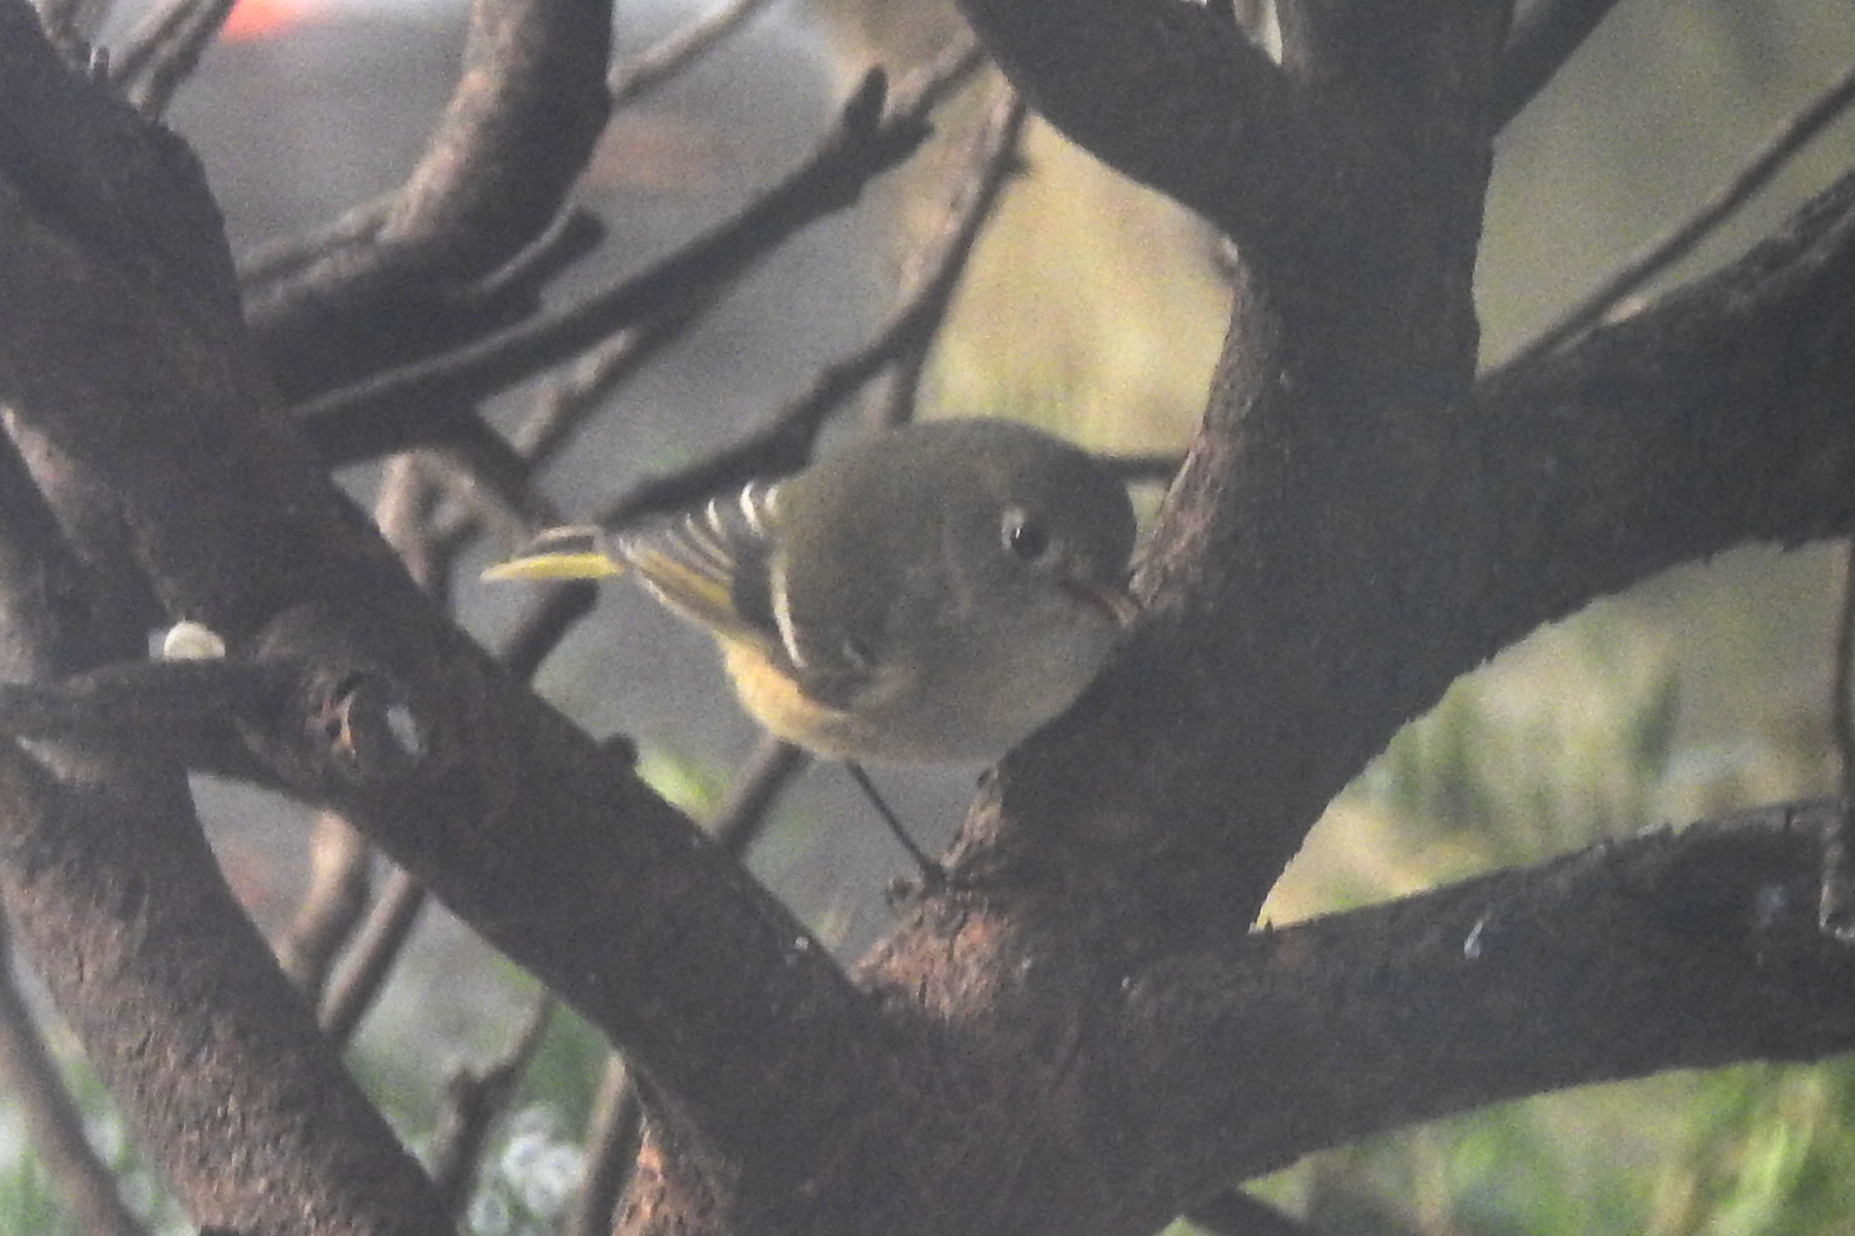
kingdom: Animalia
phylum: Chordata
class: Aves
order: Passeriformes
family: Regulidae
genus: Regulus
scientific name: Regulus calendula
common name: Ruby-crowned kinglet
